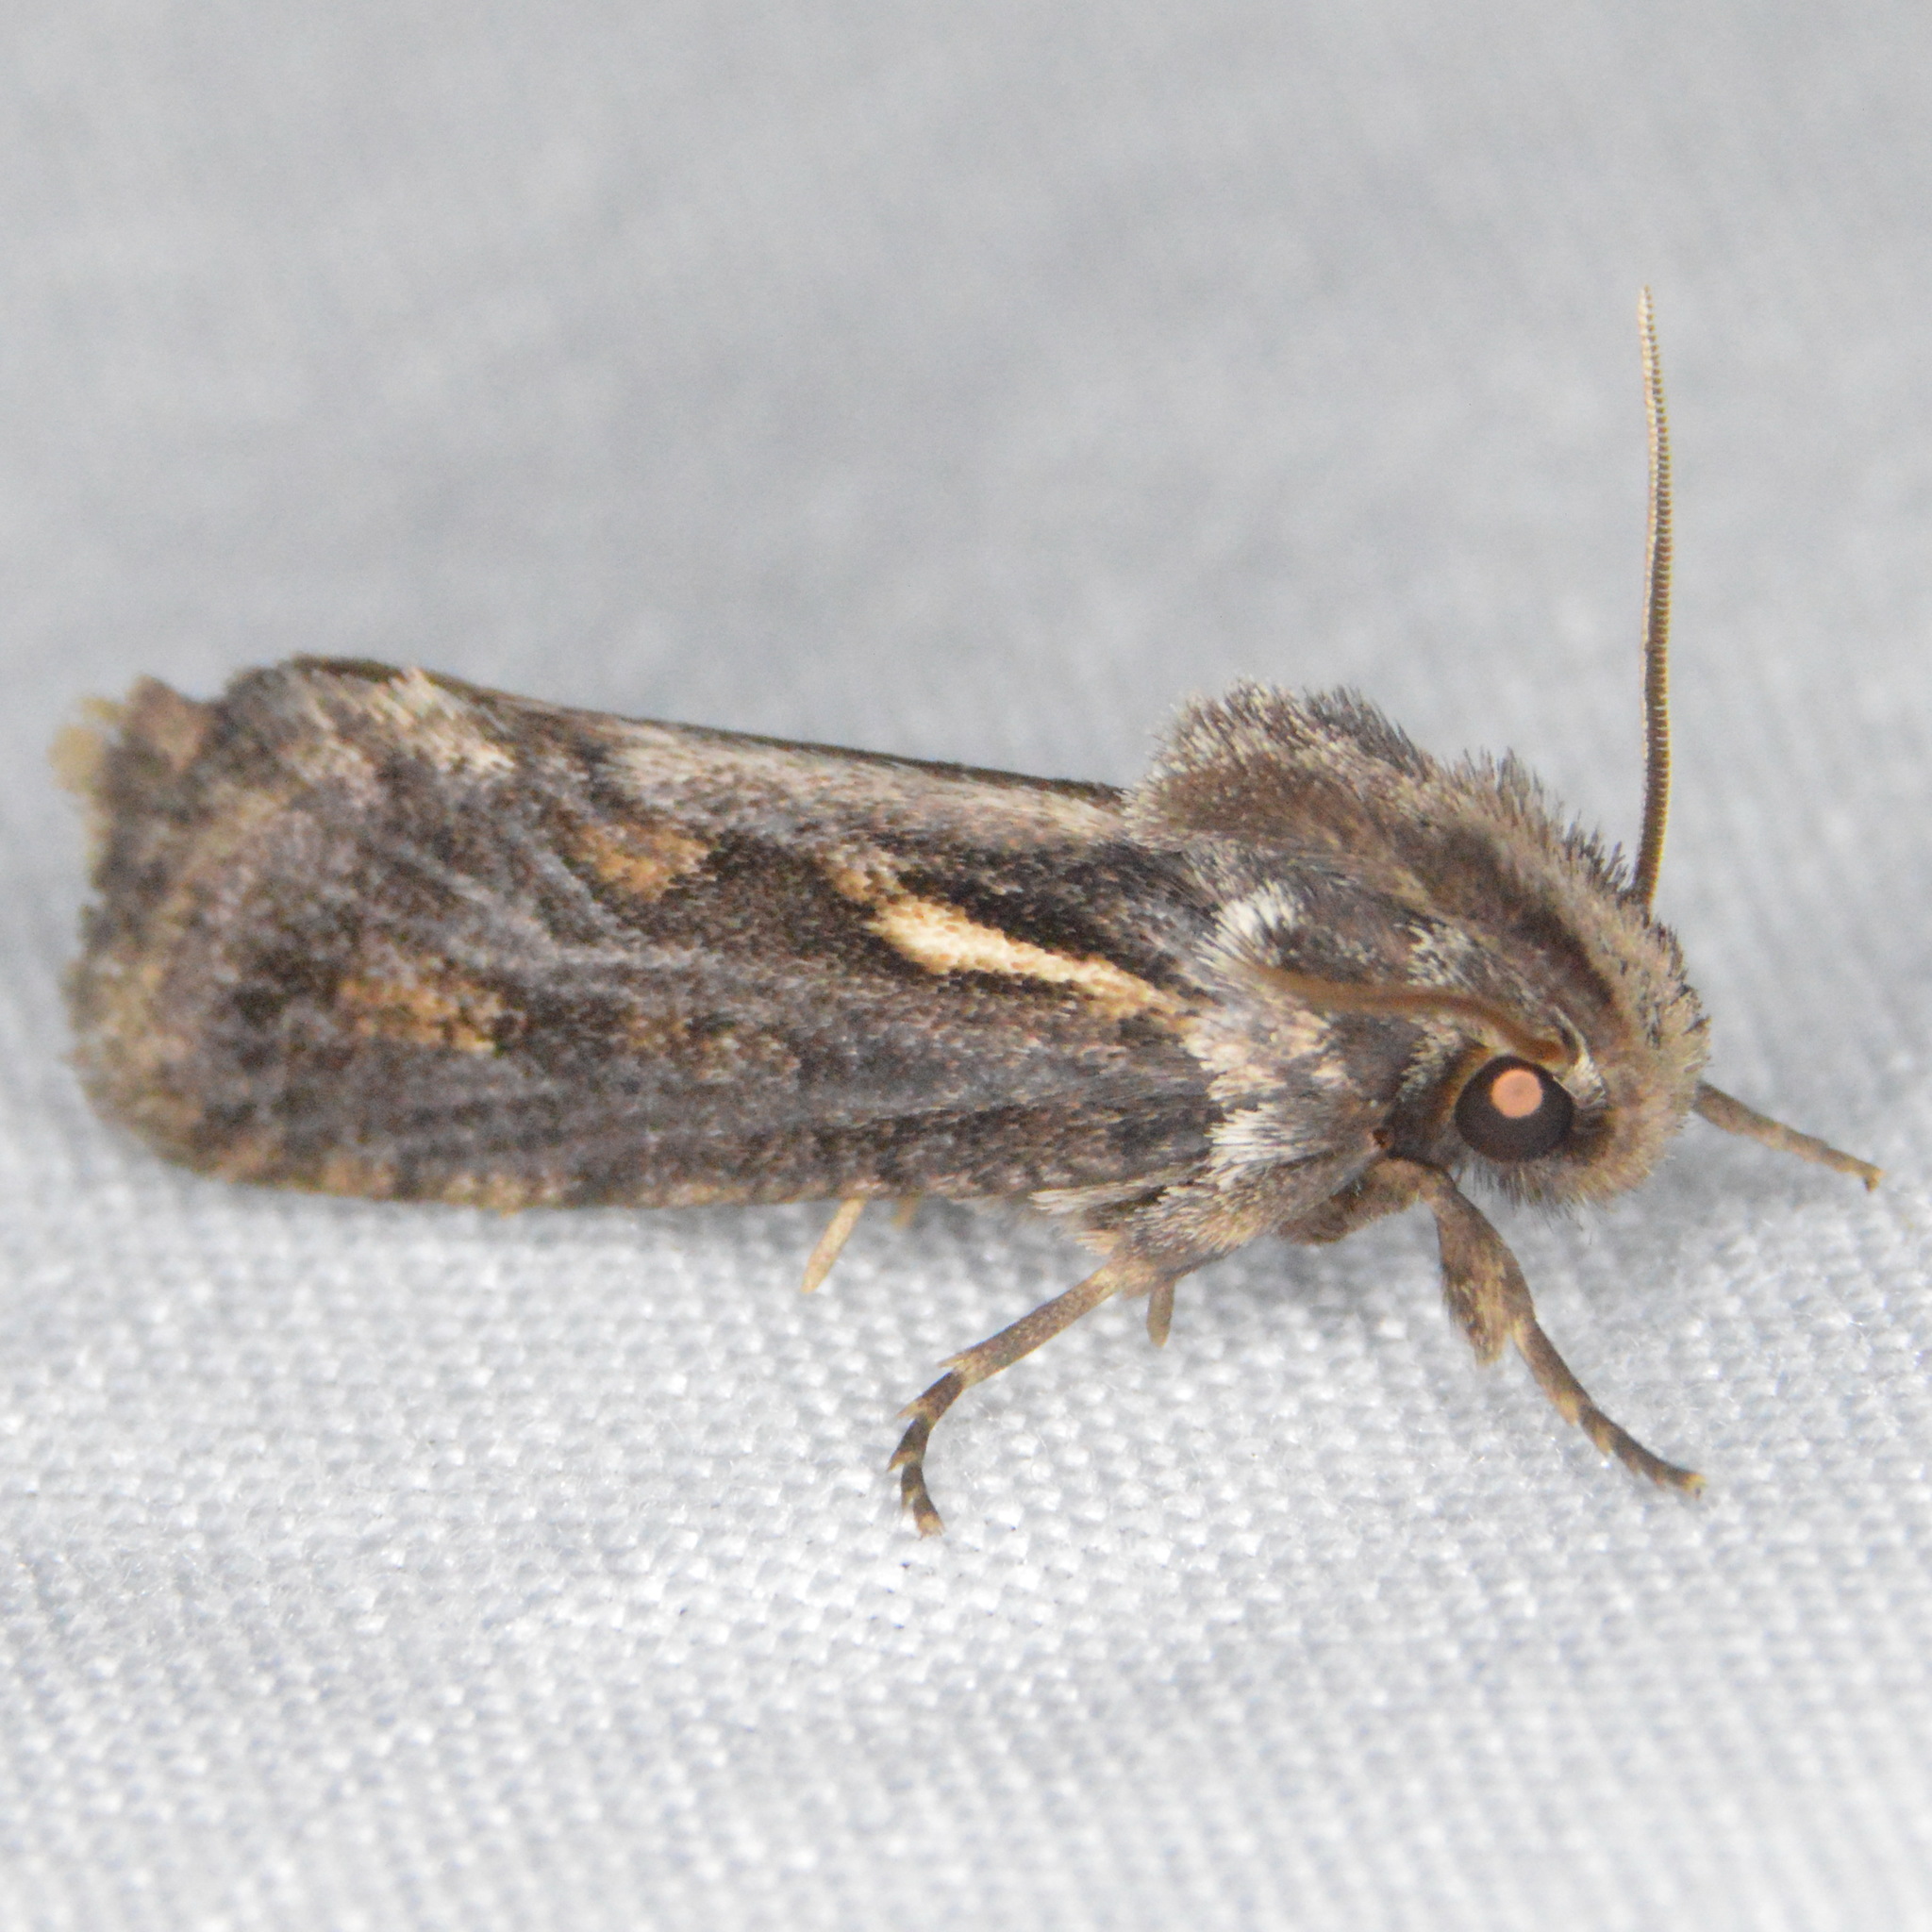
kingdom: Animalia
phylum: Arthropoda
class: Insecta
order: Lepidoptera
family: Tineidae
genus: Acrolophus
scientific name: Acrolophus popeanella
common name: Clemens' grass tubeworm moth
